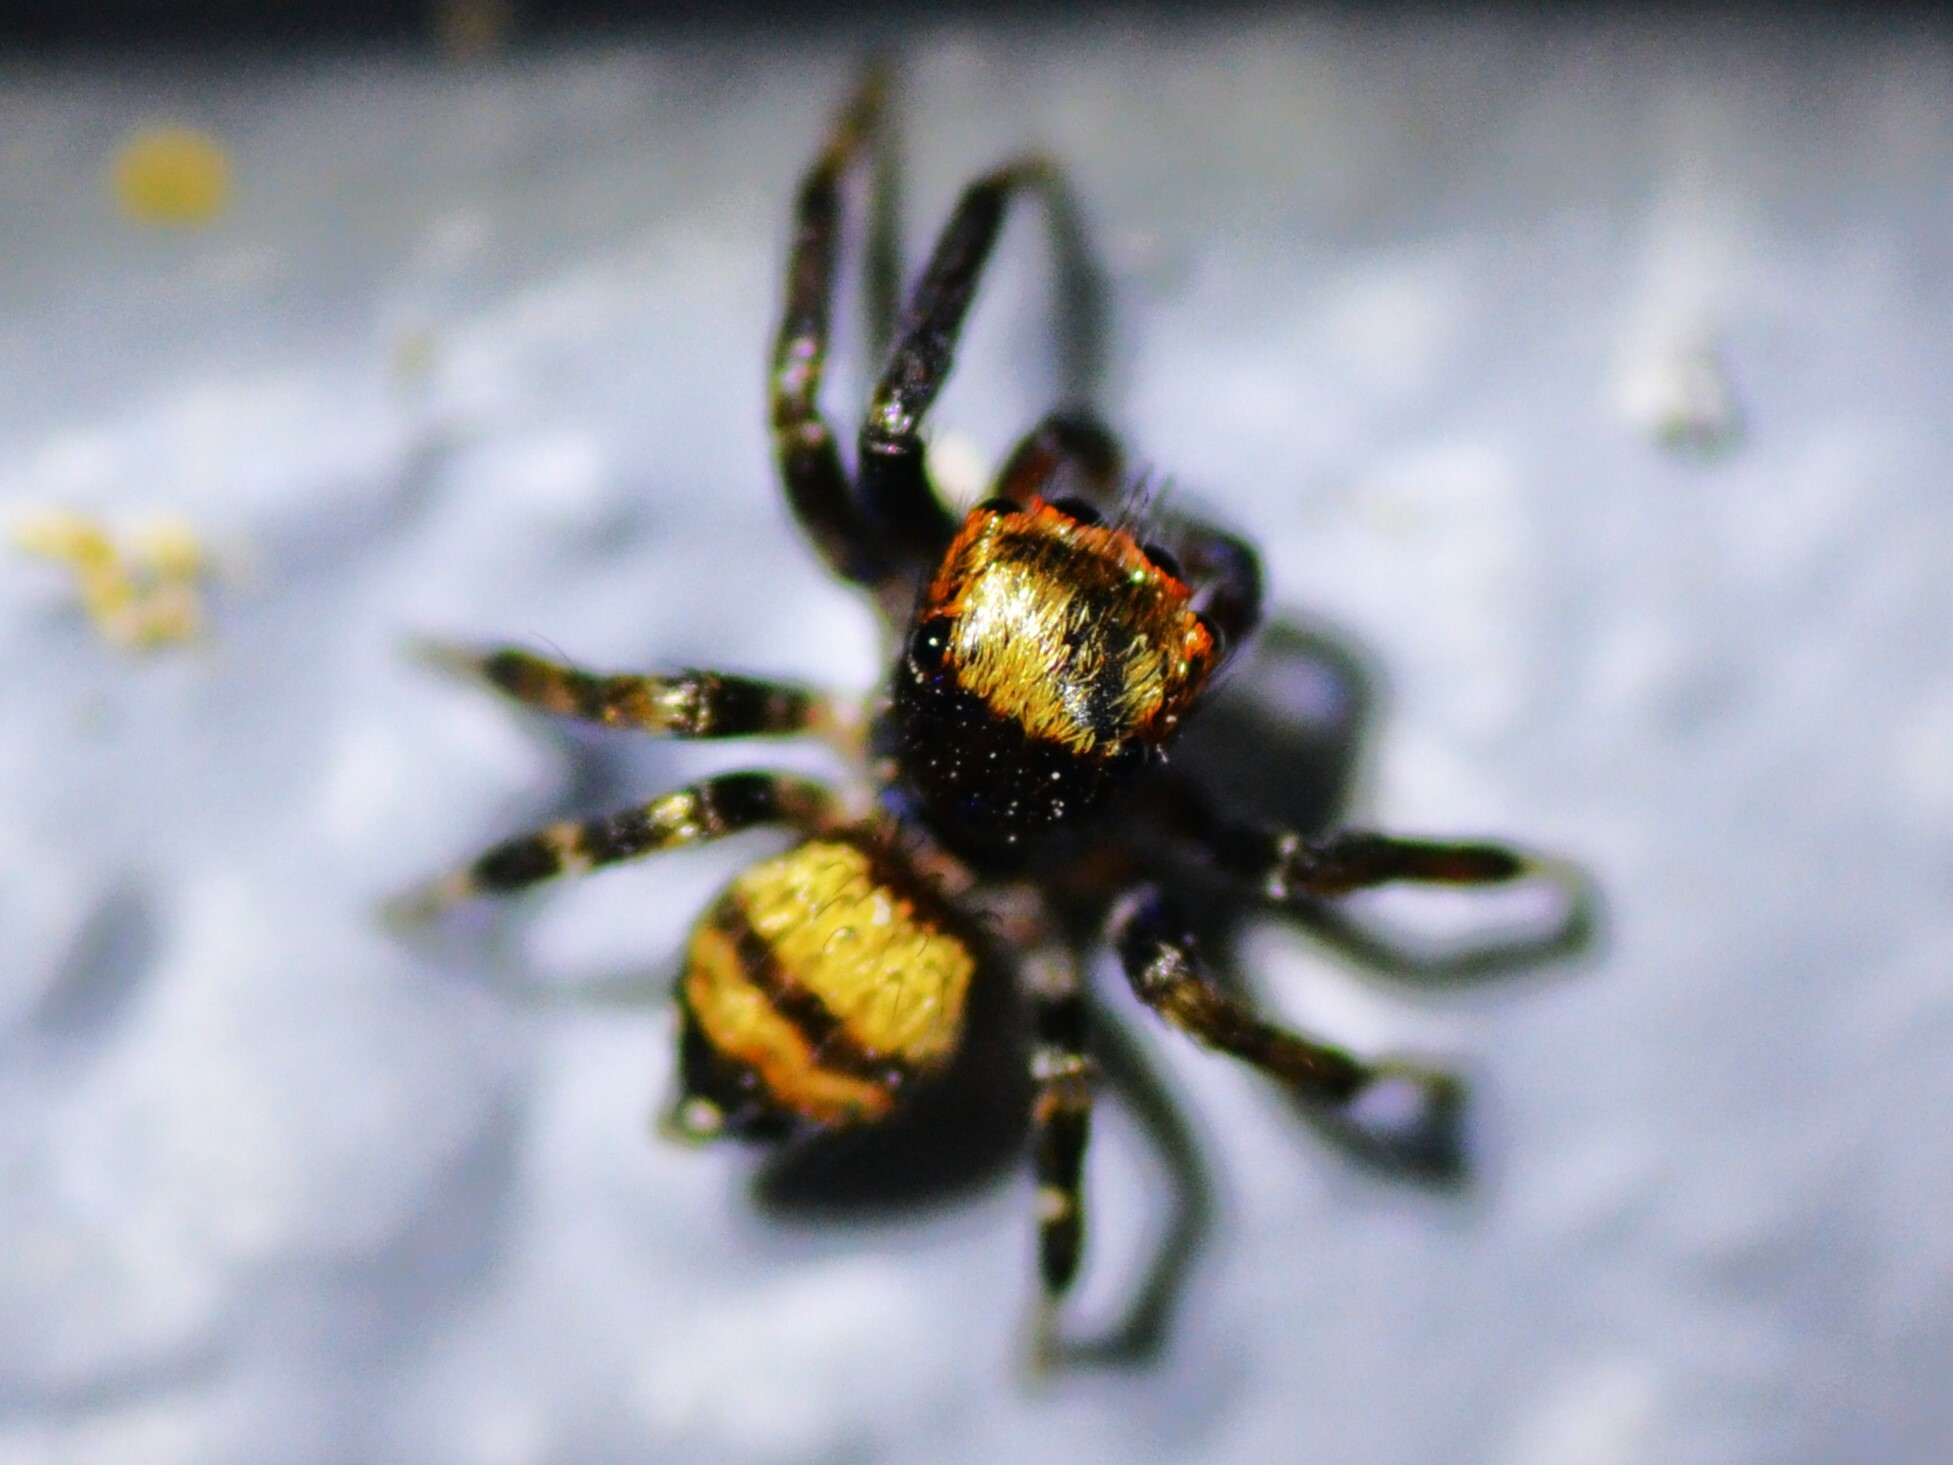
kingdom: Animalia
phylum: Arthropoda
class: Arachnida
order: Araneae
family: Salticidae
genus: Thorelliola
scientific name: Thorelliola ensifera
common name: Jumping spider
